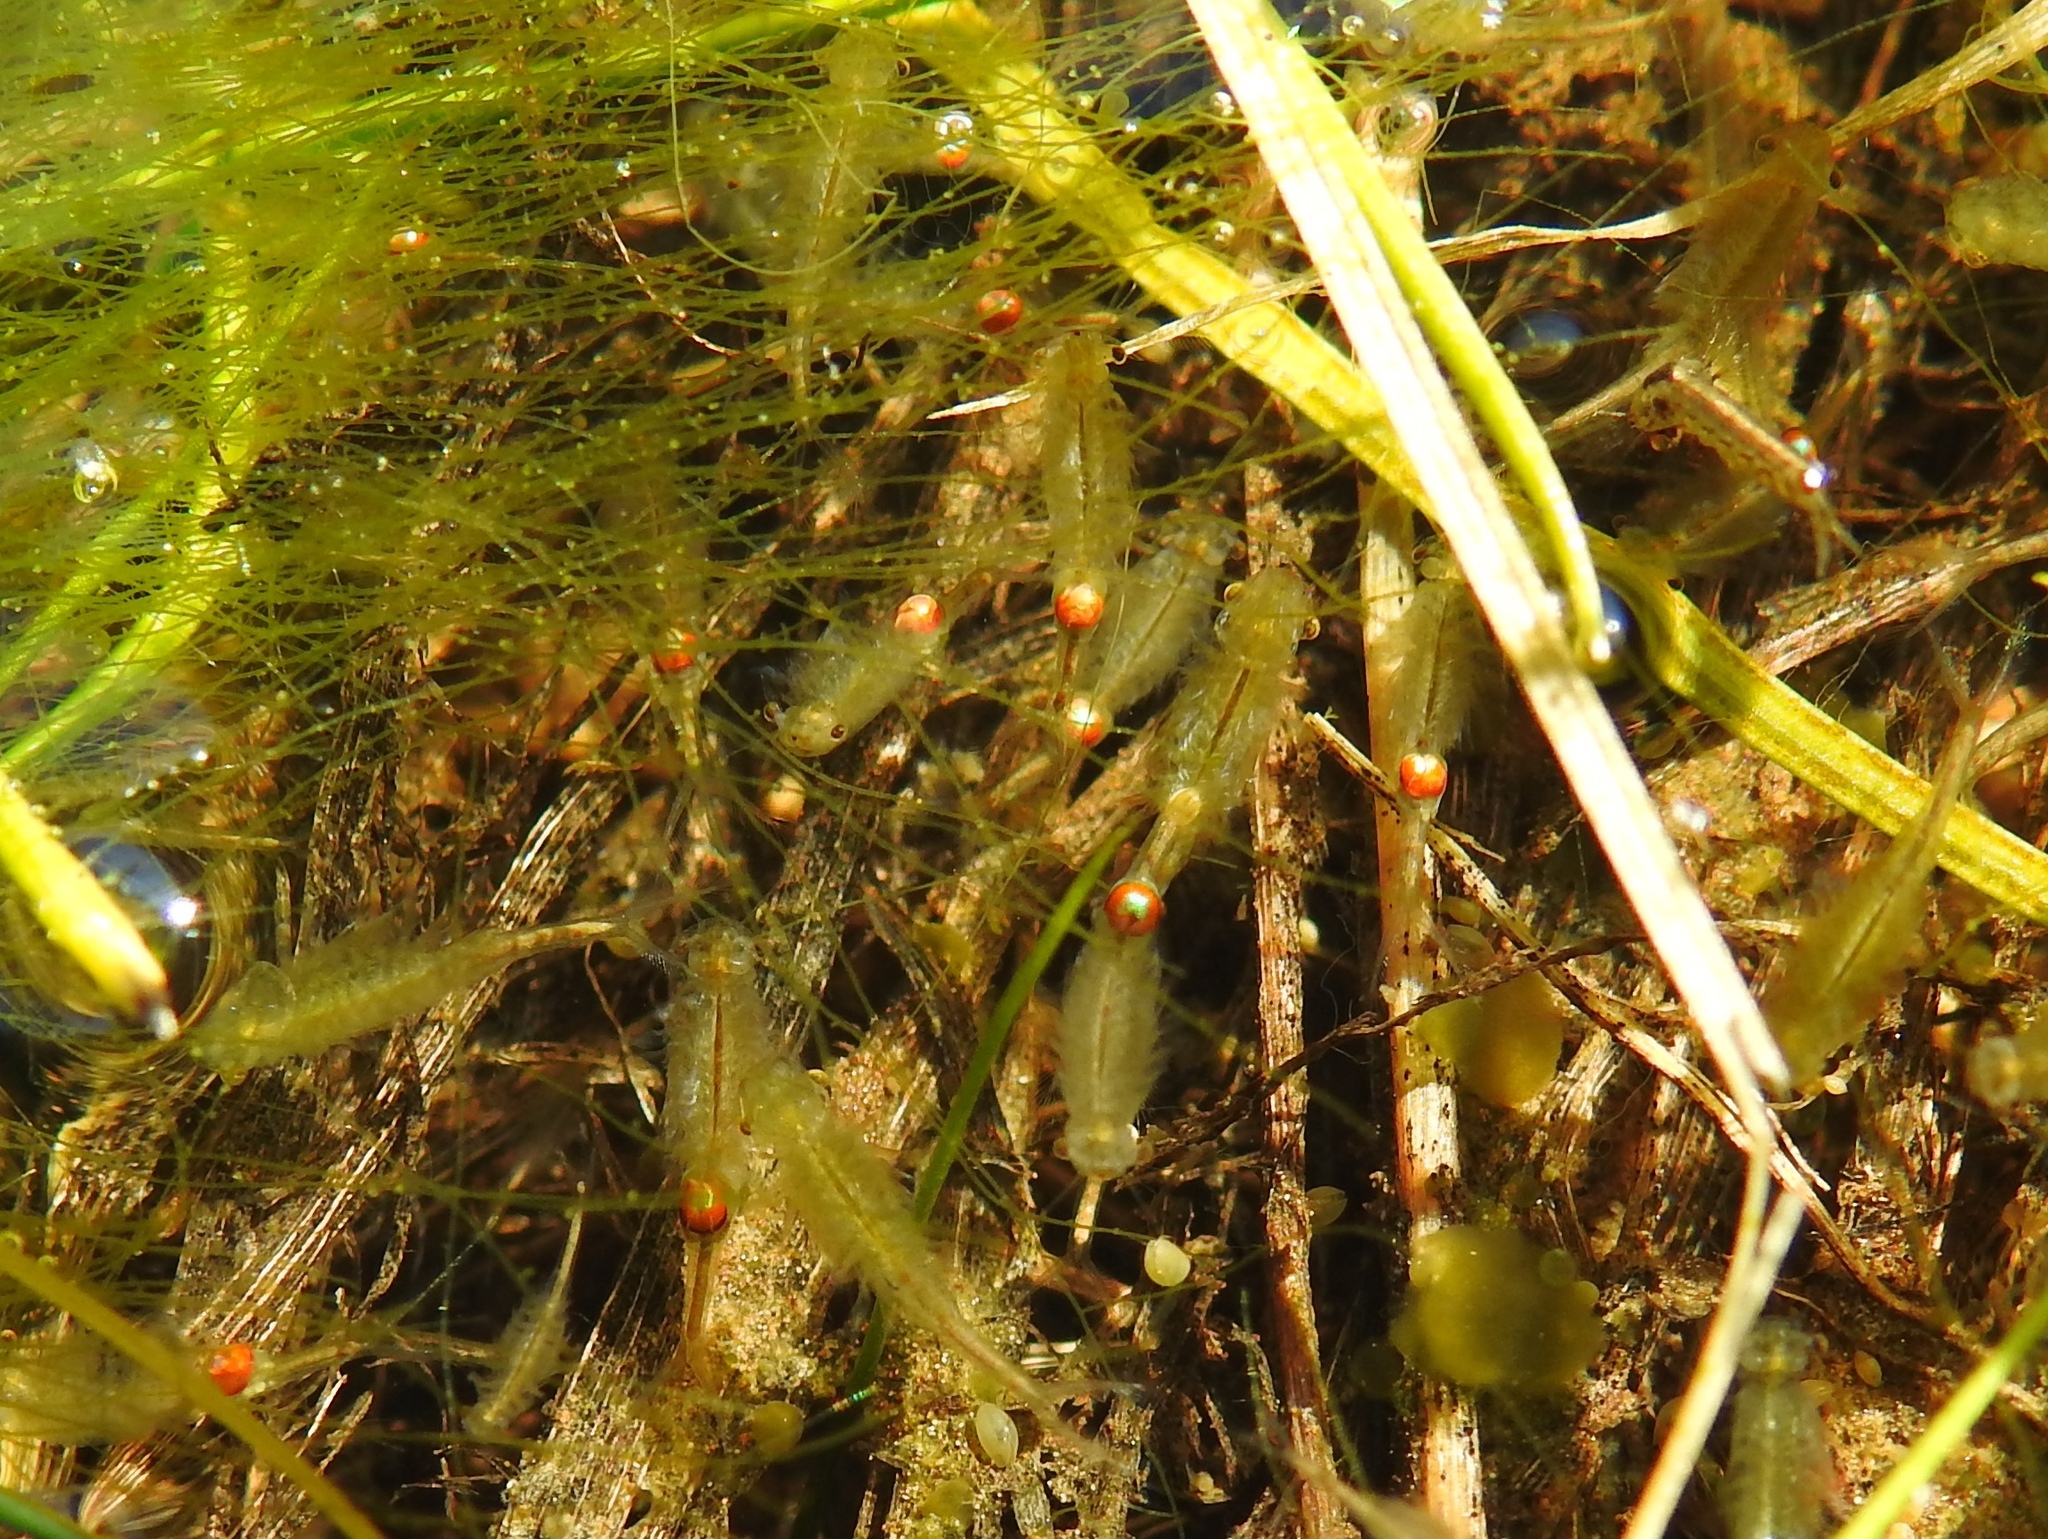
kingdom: Animalia
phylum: Arthropoda
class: Branchiopoda
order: Anostraca
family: Tanymastigidae
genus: Tanymastix
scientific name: Tanymastix stagnalis
